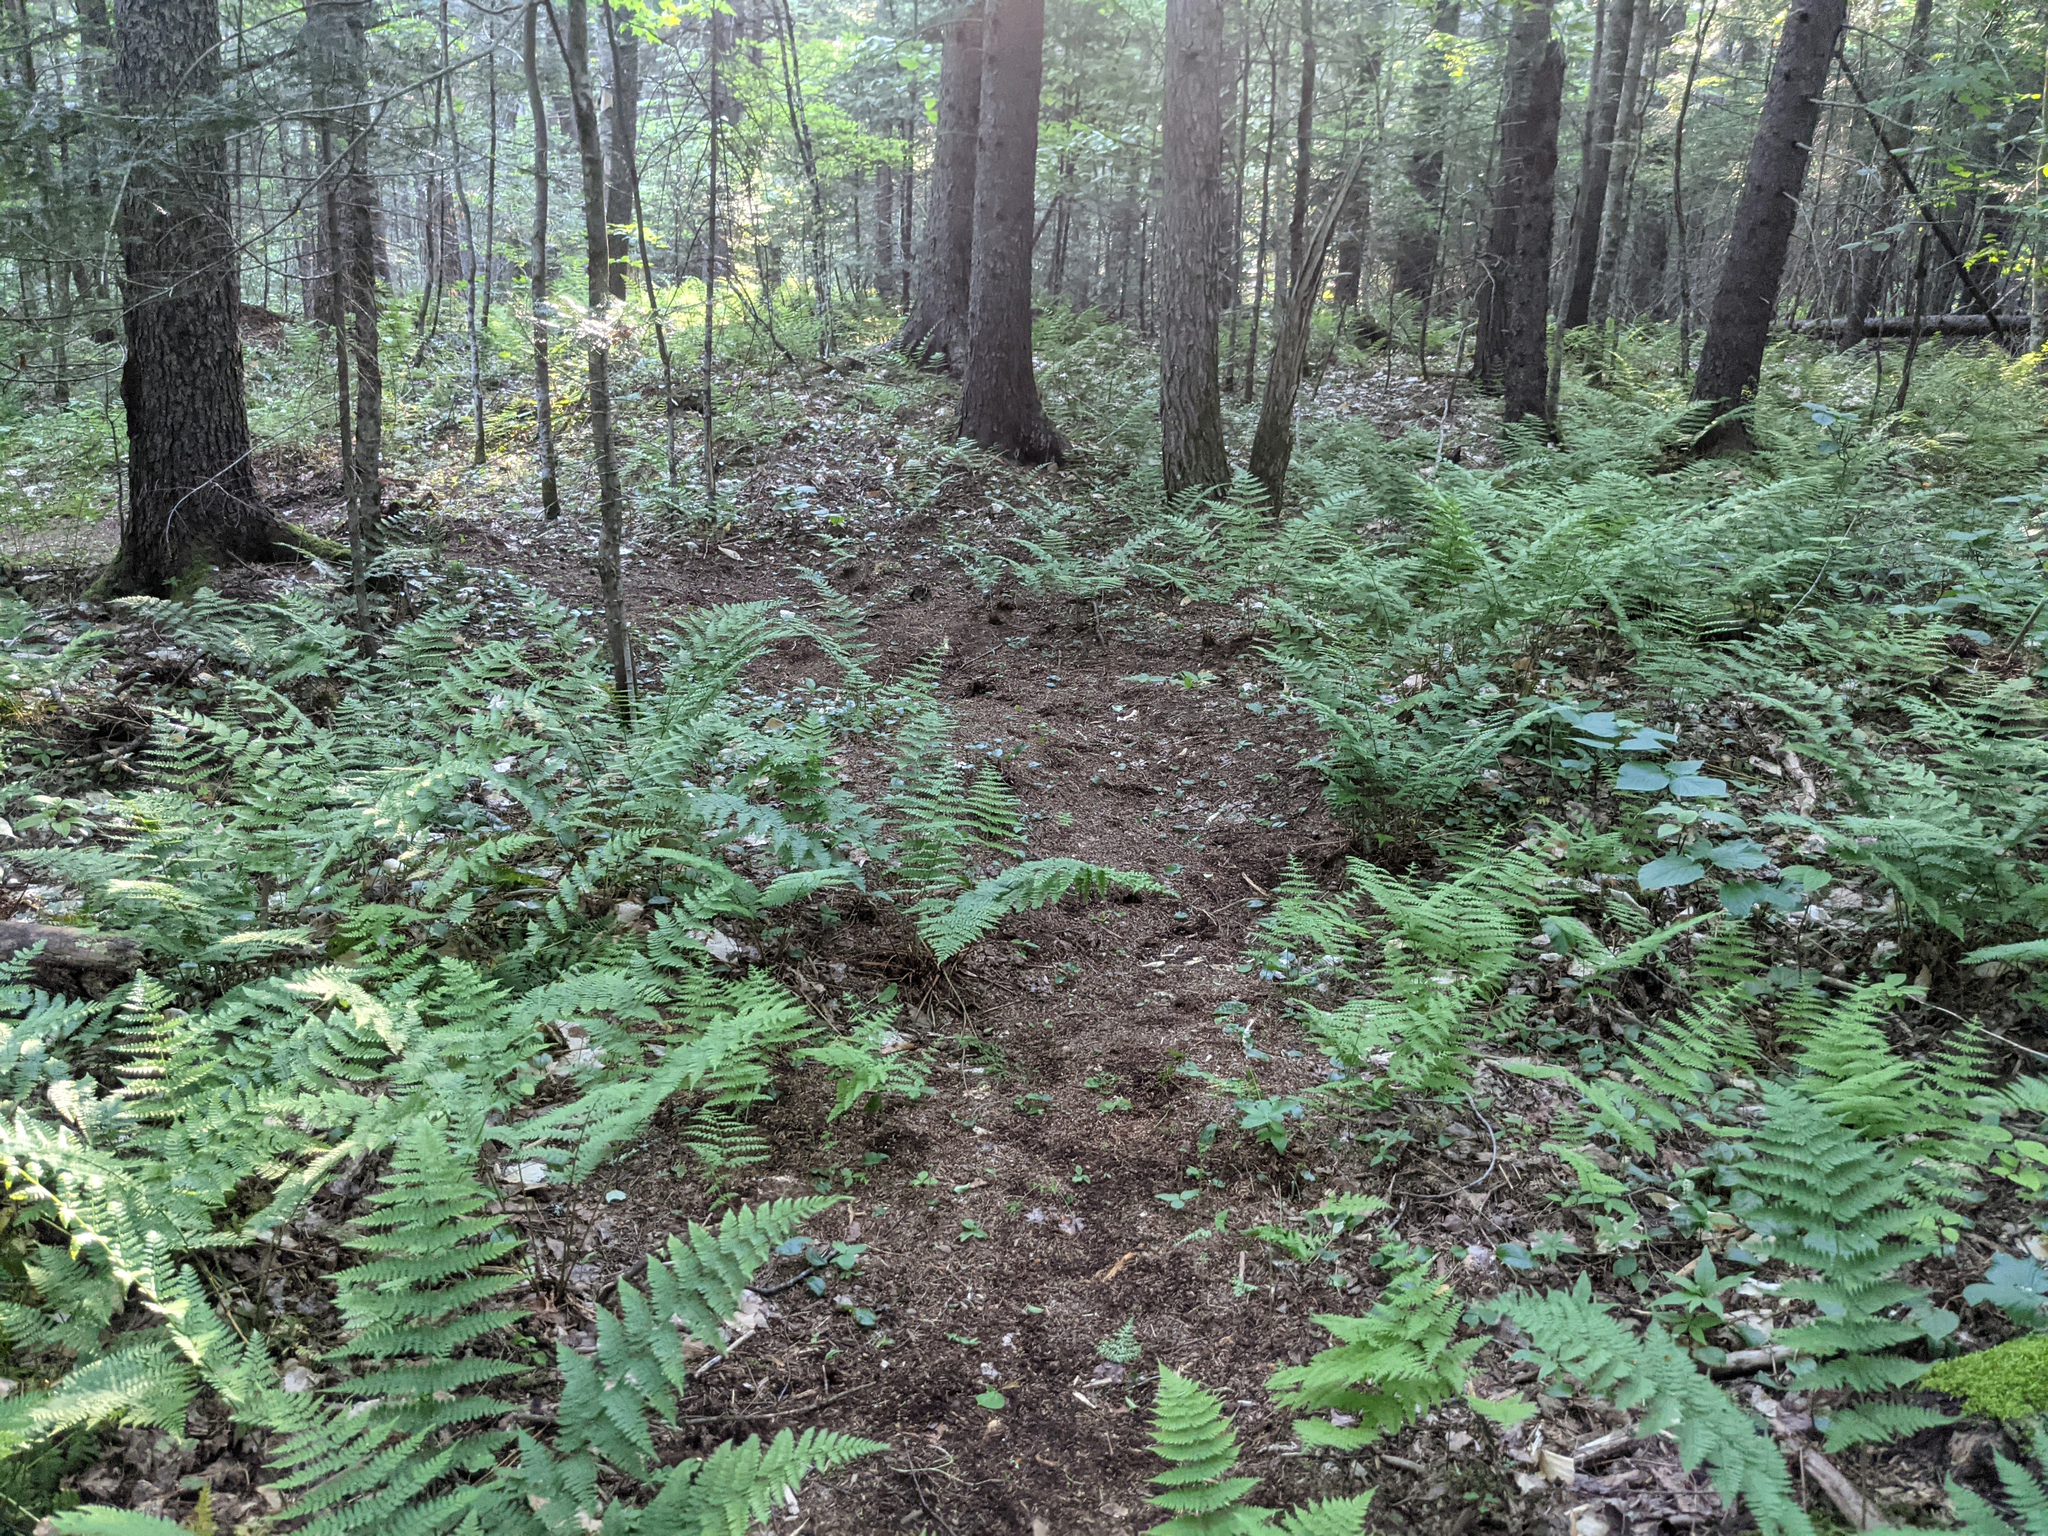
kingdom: Plantae
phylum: Tracheophyta
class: Polypodiopsida
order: Polypodiales
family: Dryopteridaceae
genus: Dryopteris
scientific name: Dryopteris intermedia
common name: Evergreen wood fern
